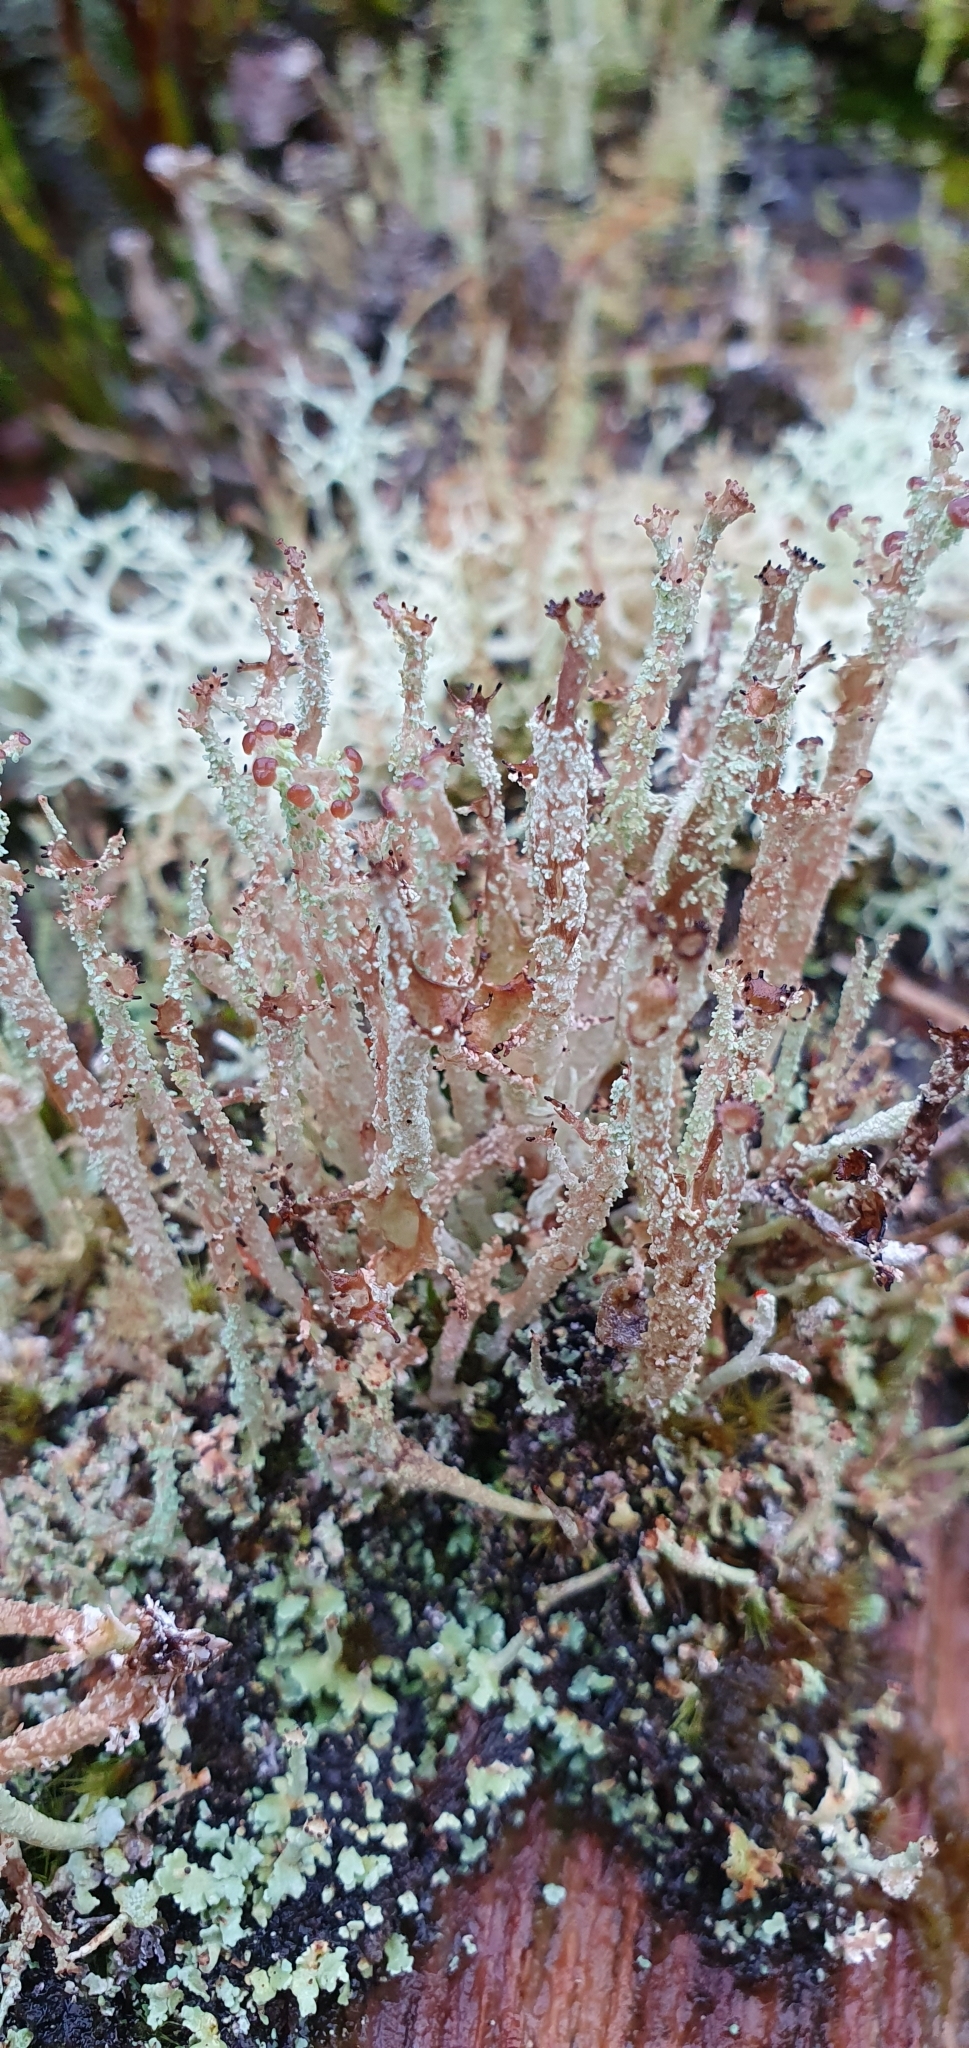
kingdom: Fungi
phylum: Ascomycota
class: Lecanoromycetes
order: Lecanorales
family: Cladoniaceae
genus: Cladonia
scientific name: Cladonia squamosa
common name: Dragon horn
